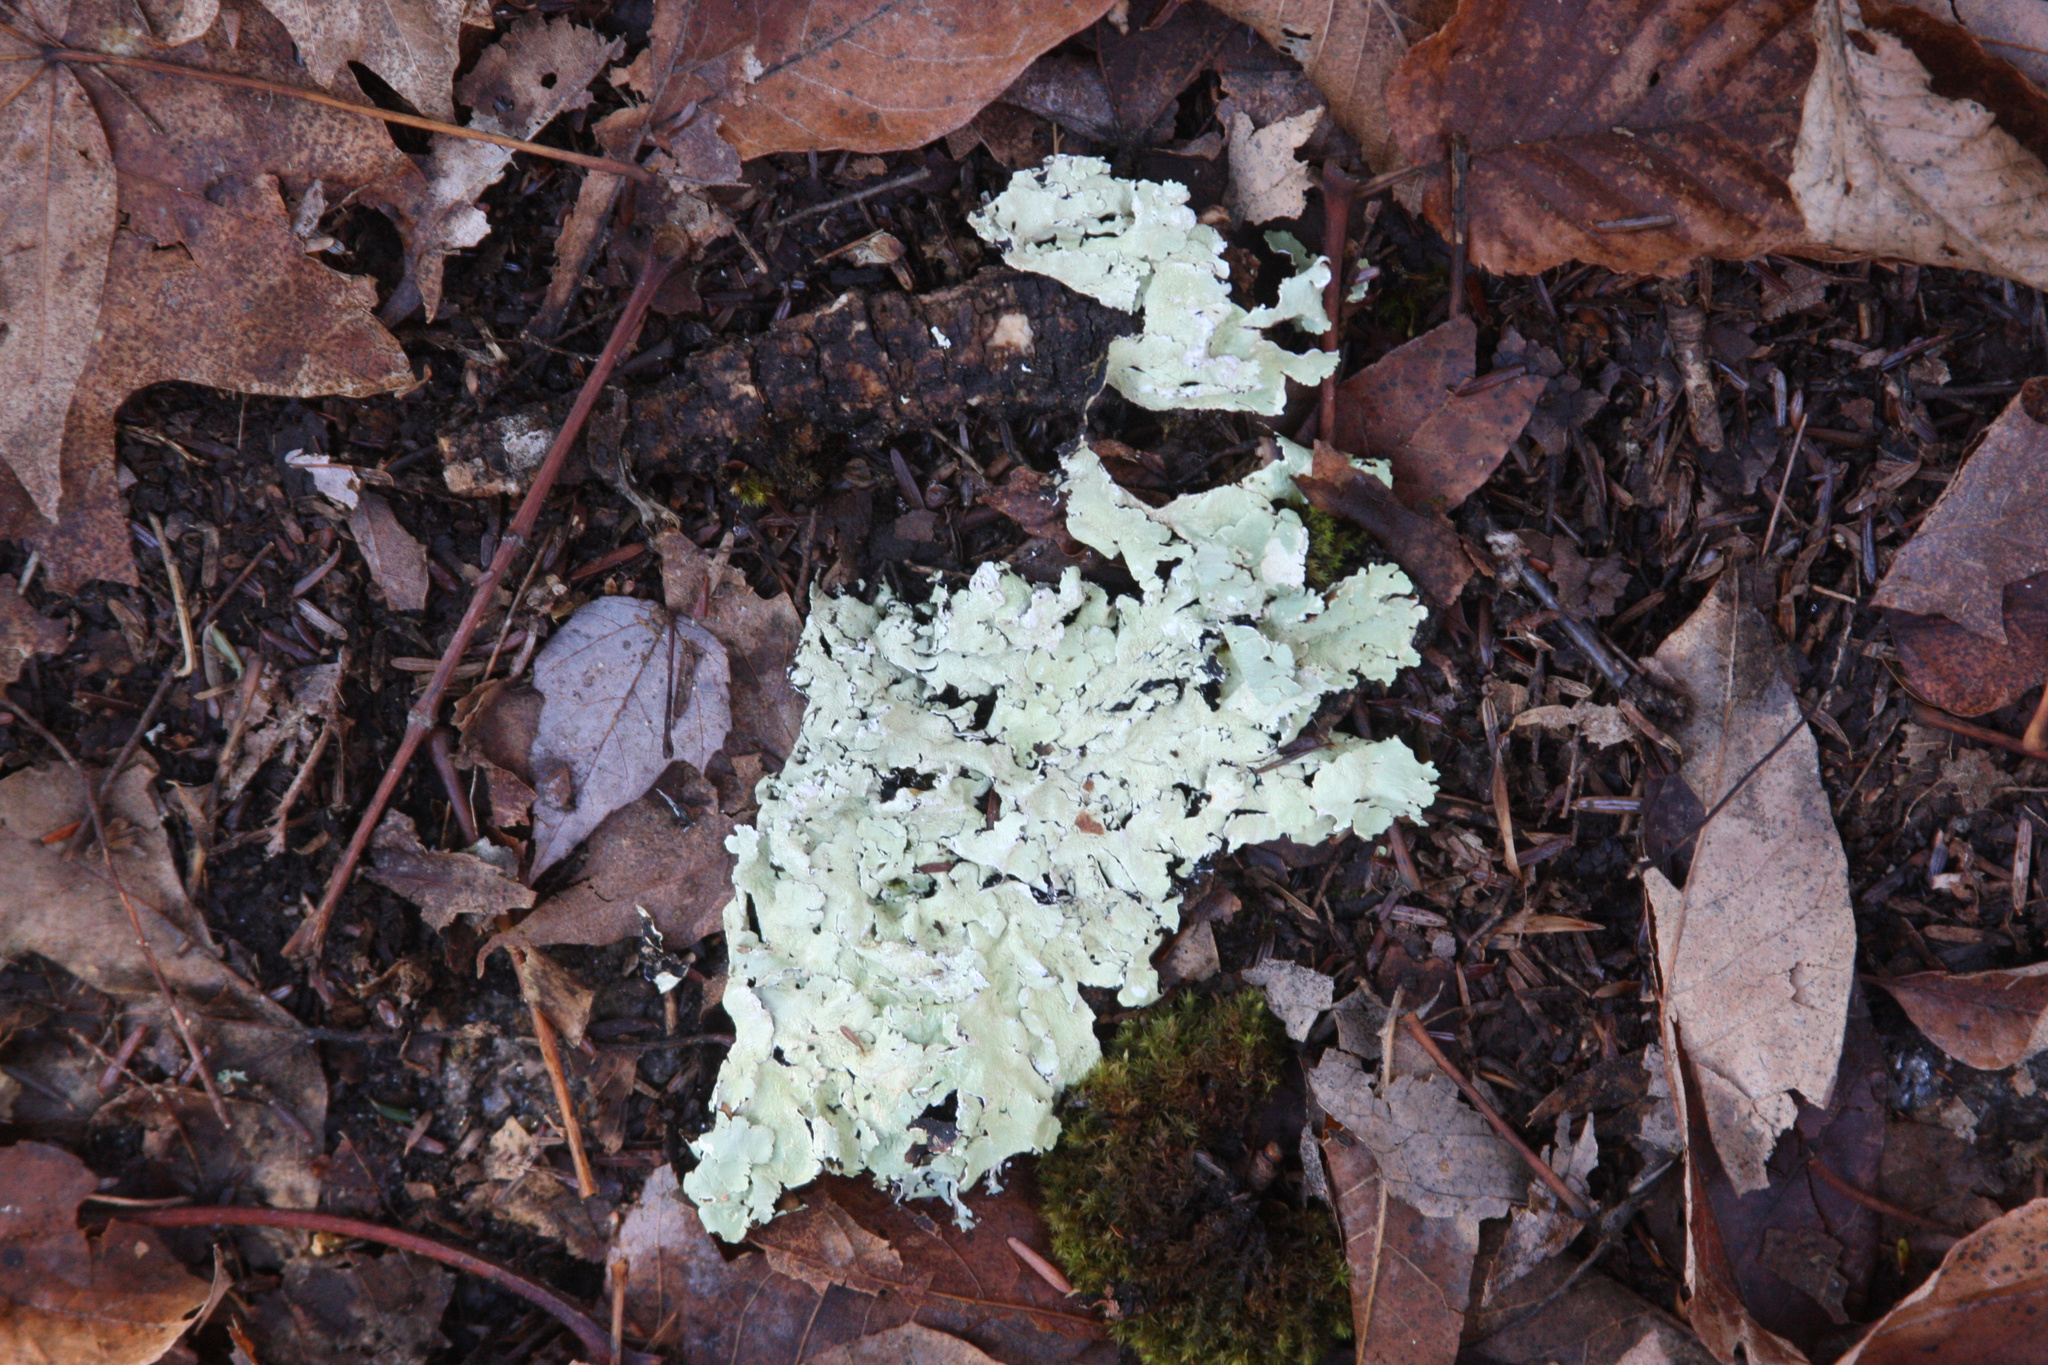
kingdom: Fungi
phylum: Ascomycota
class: Lecanoromycetes
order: Lecanorales
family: Parmeliaceae
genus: Flavoparmelia
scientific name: Flavoparmelia caperata
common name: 40-mile per hour lichen
